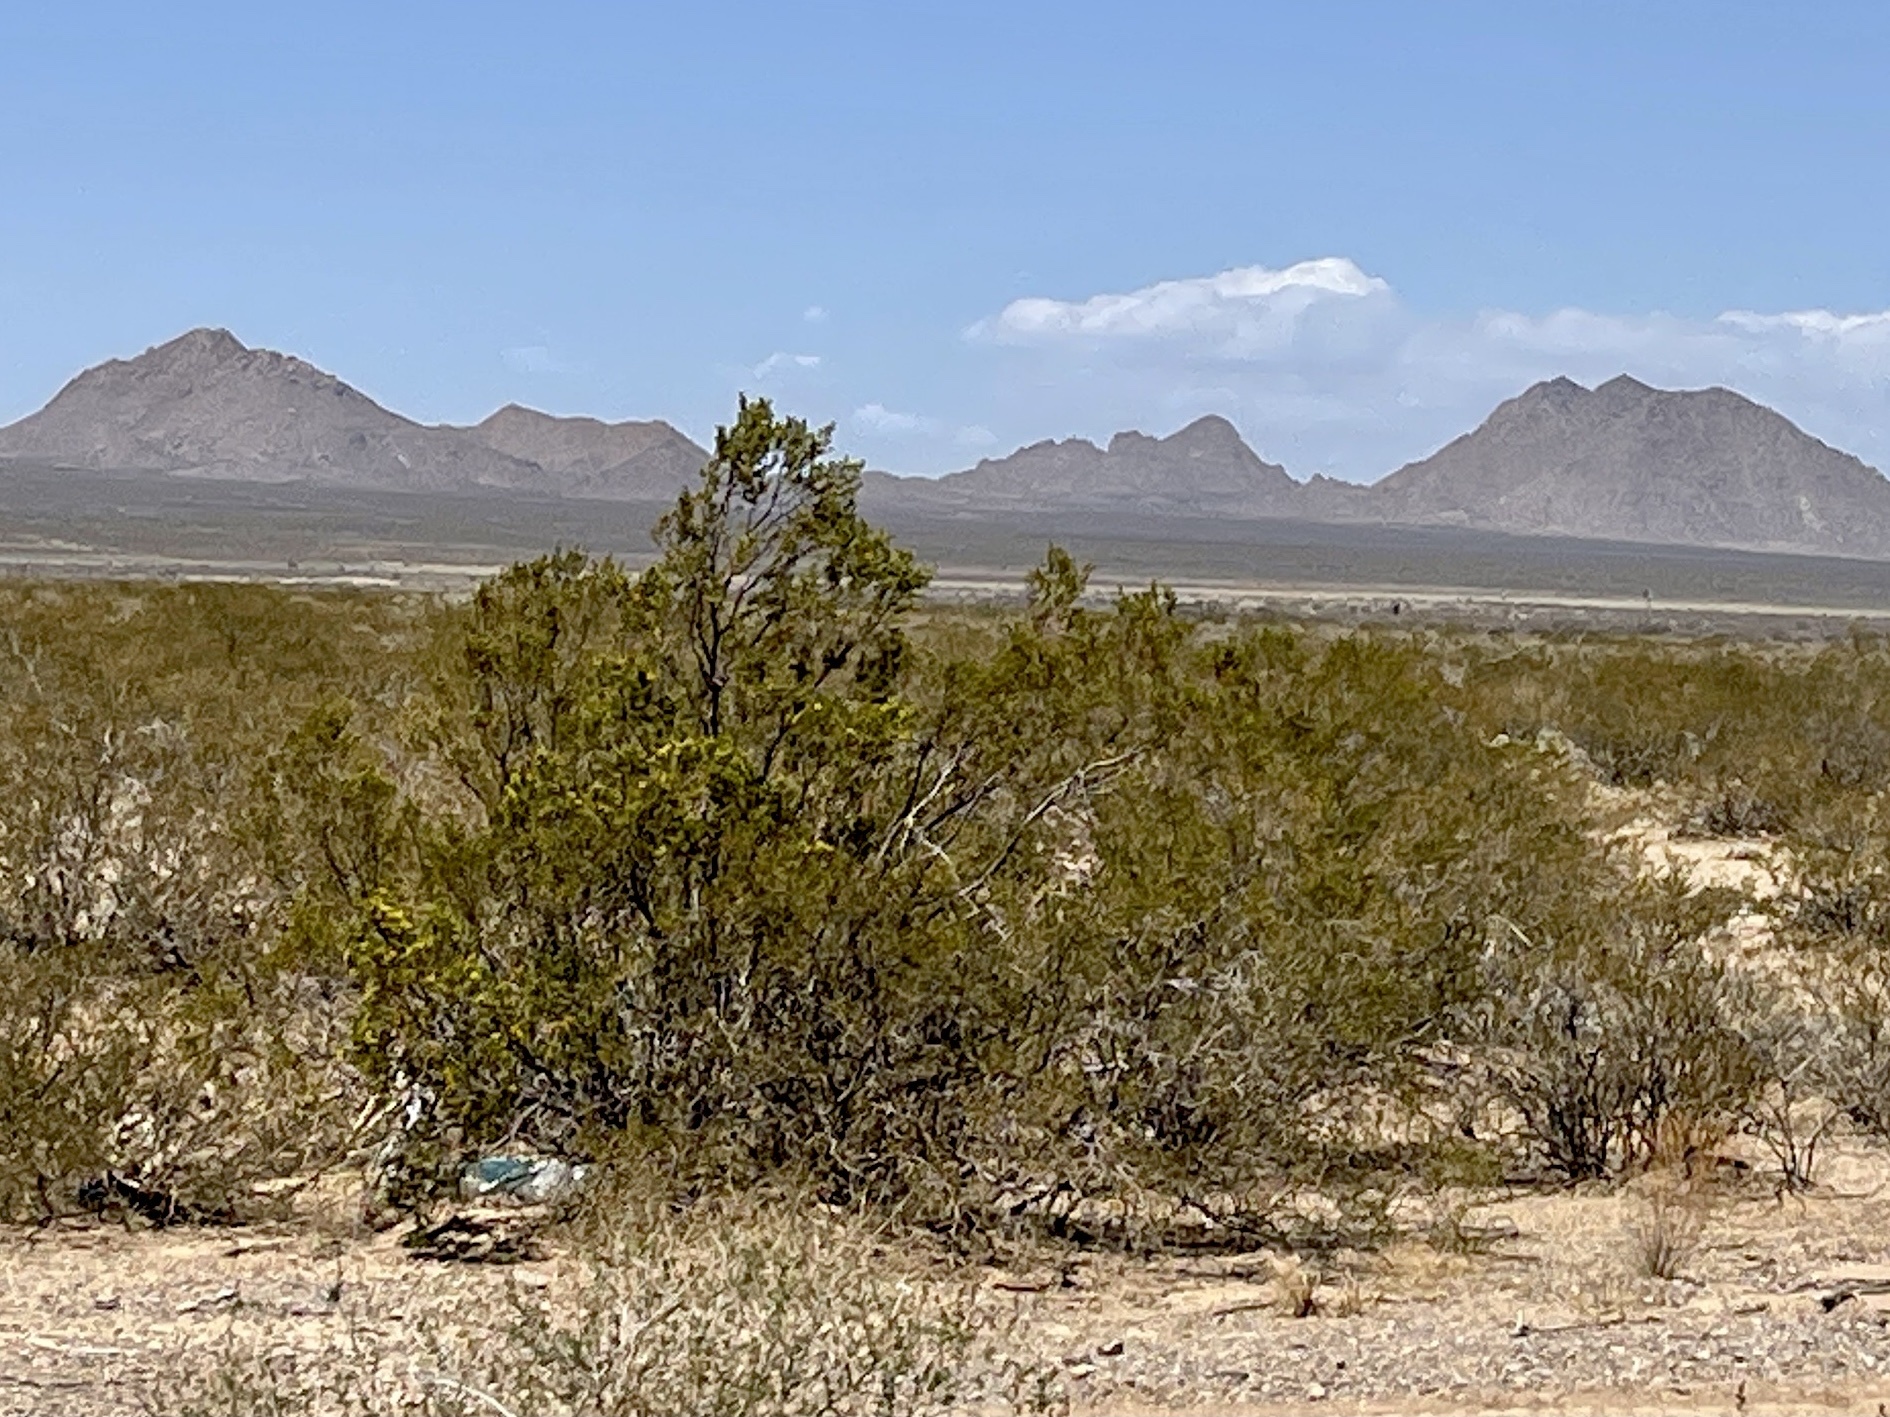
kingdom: Plantae
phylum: Tracheophyta
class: Magnoliopsida
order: Zygophyllales
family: Zygophyllaceae
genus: Larrea
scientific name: Larrea tridentata
